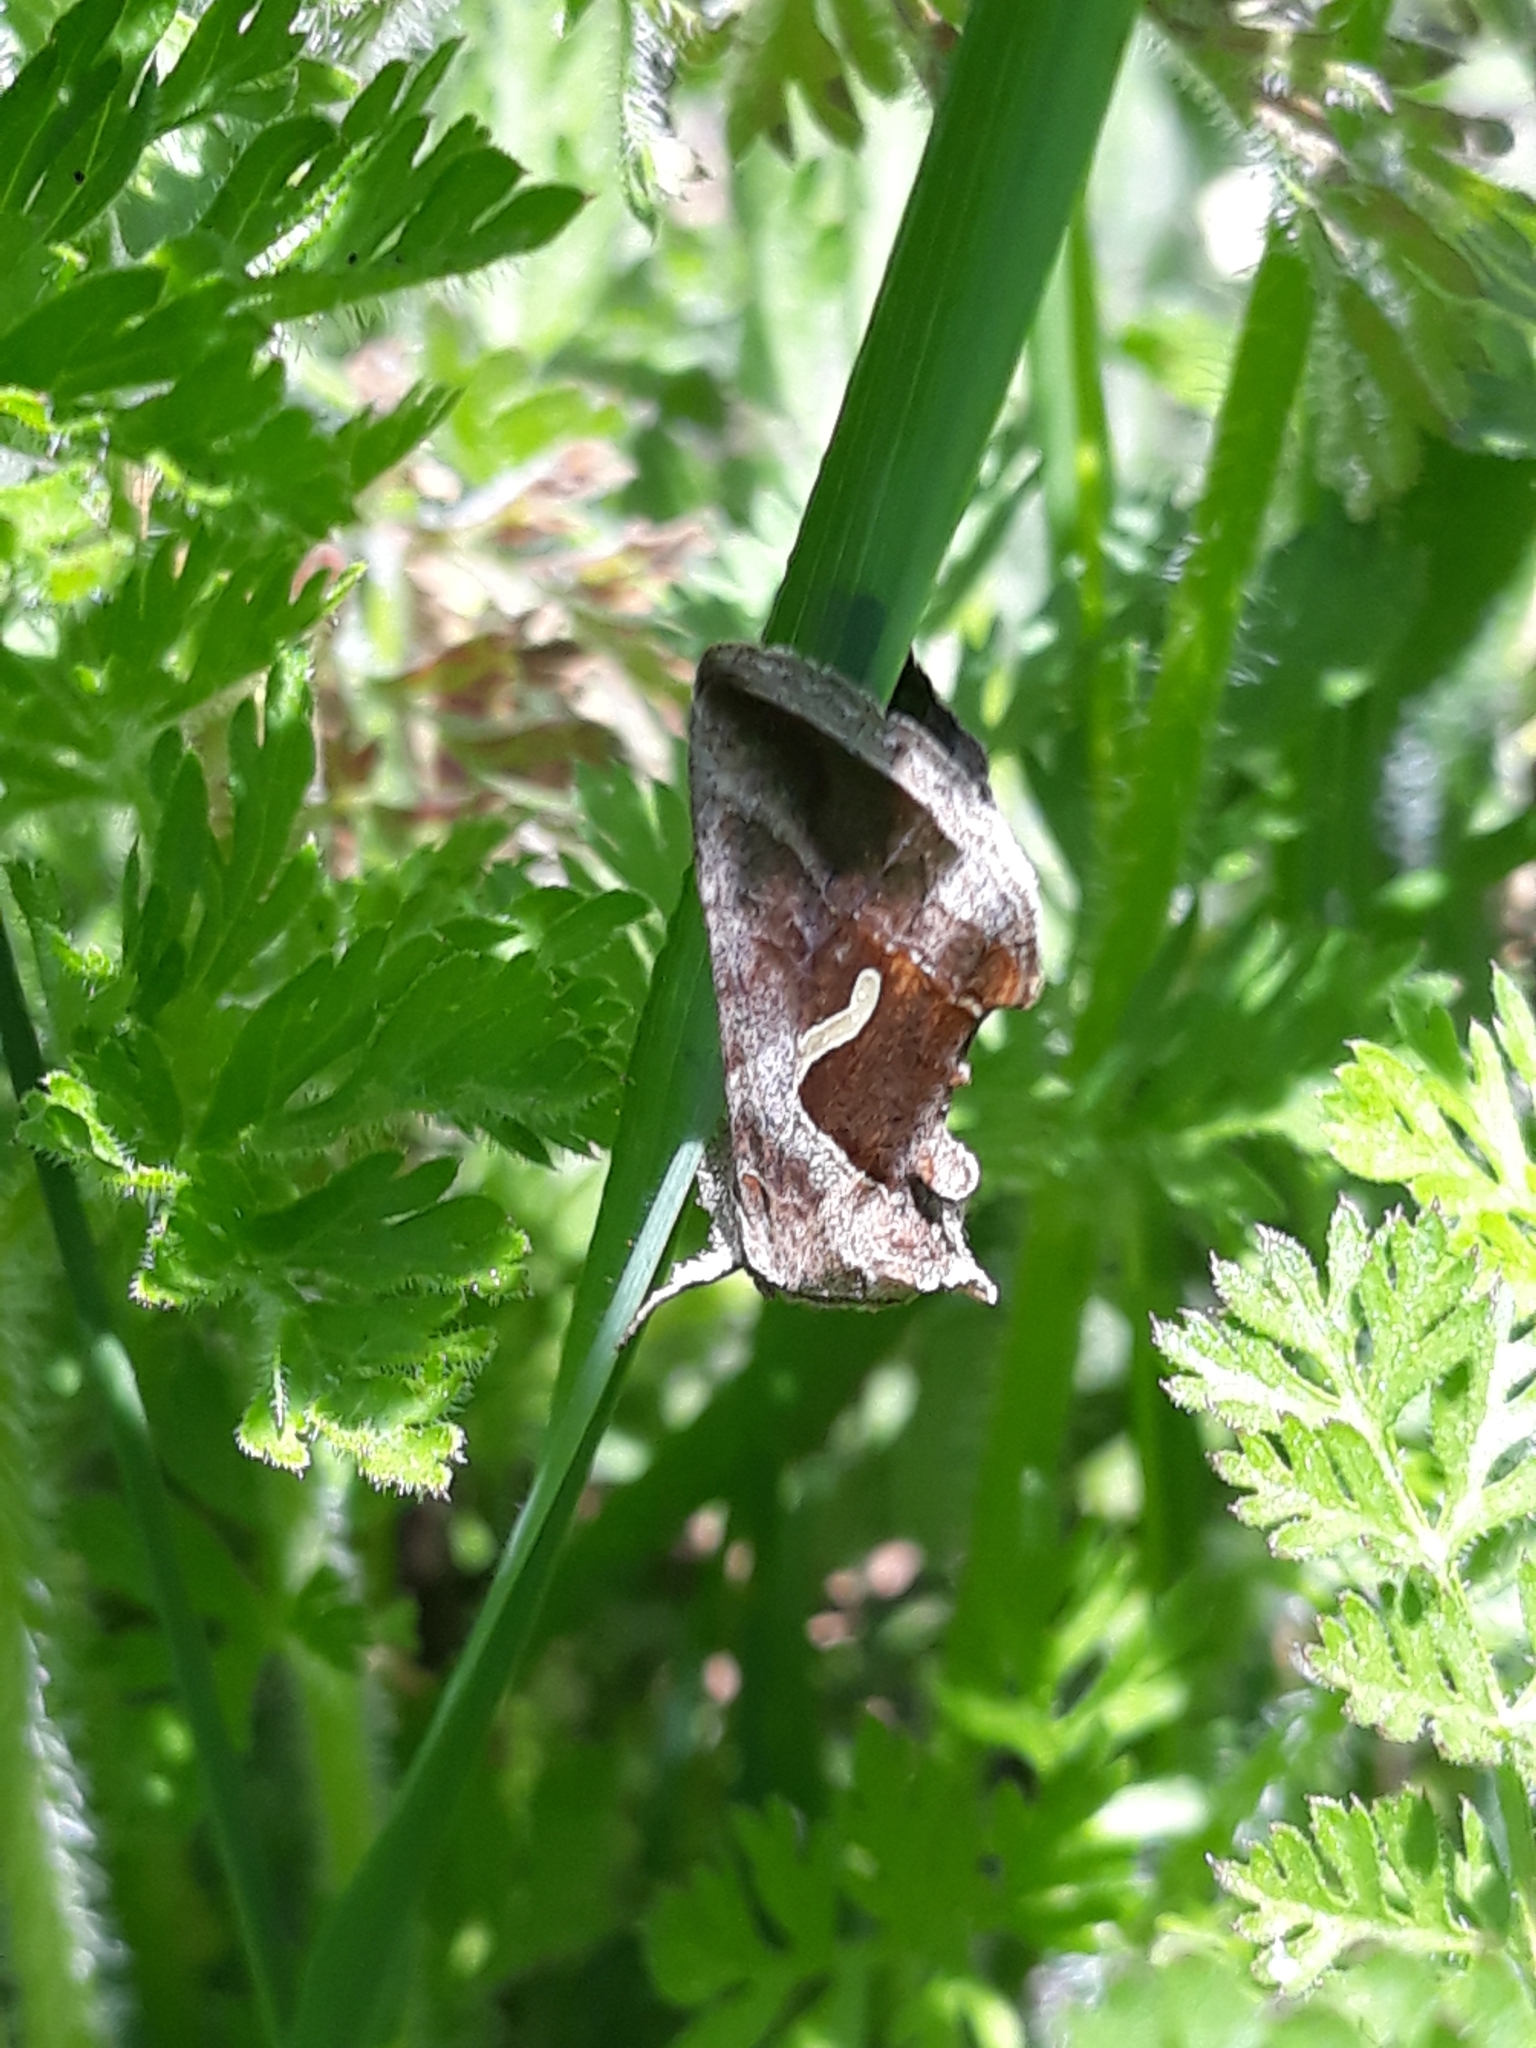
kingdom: Animalia
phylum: Arthropoda
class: Insecta
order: Lepidoptera
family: Noctuidae
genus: Macdunnoughia
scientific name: Macdunnoughia confusa
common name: Dewick's plusia
